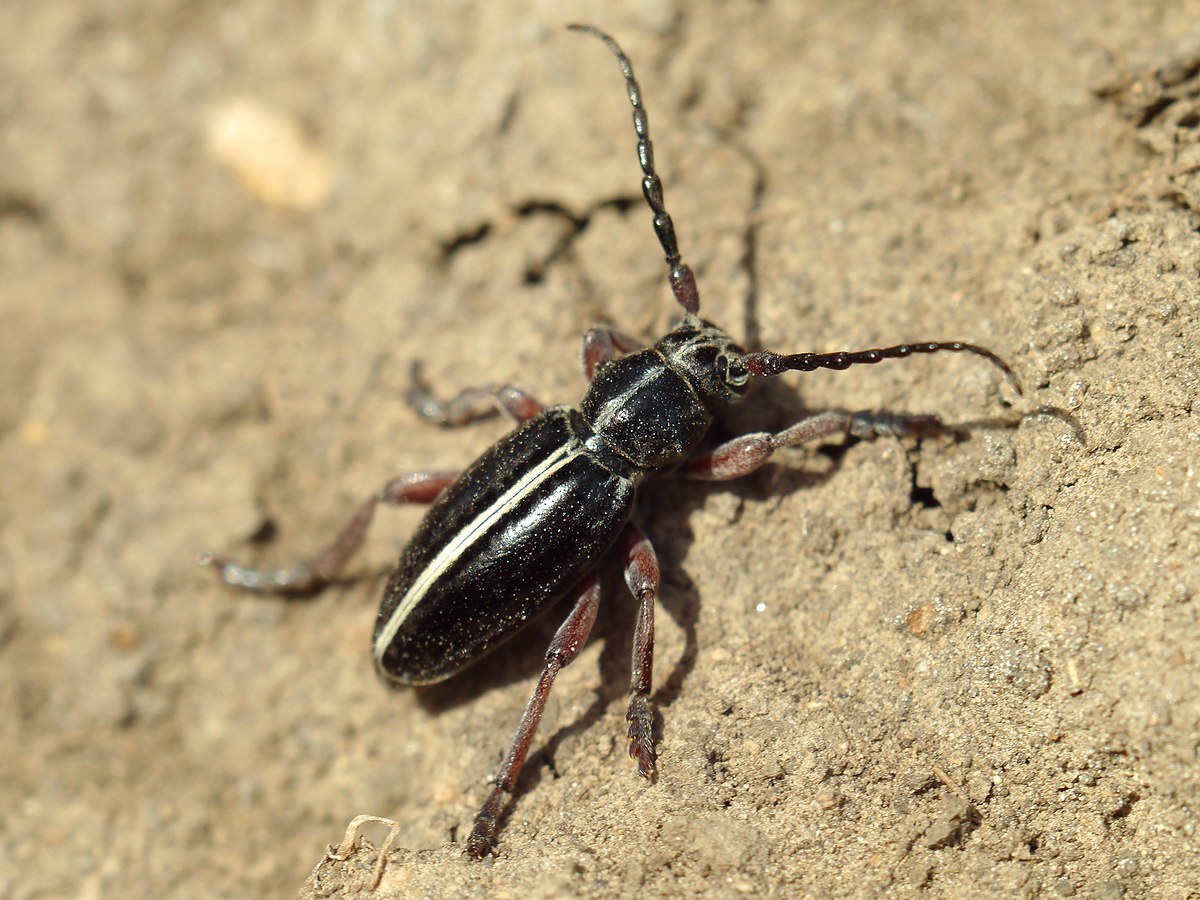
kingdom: Animalia
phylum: Arthropoda
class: Insecta
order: Coleoptera
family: Cerambycidae
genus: Dorcadion
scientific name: Dorcadion cinerarium
